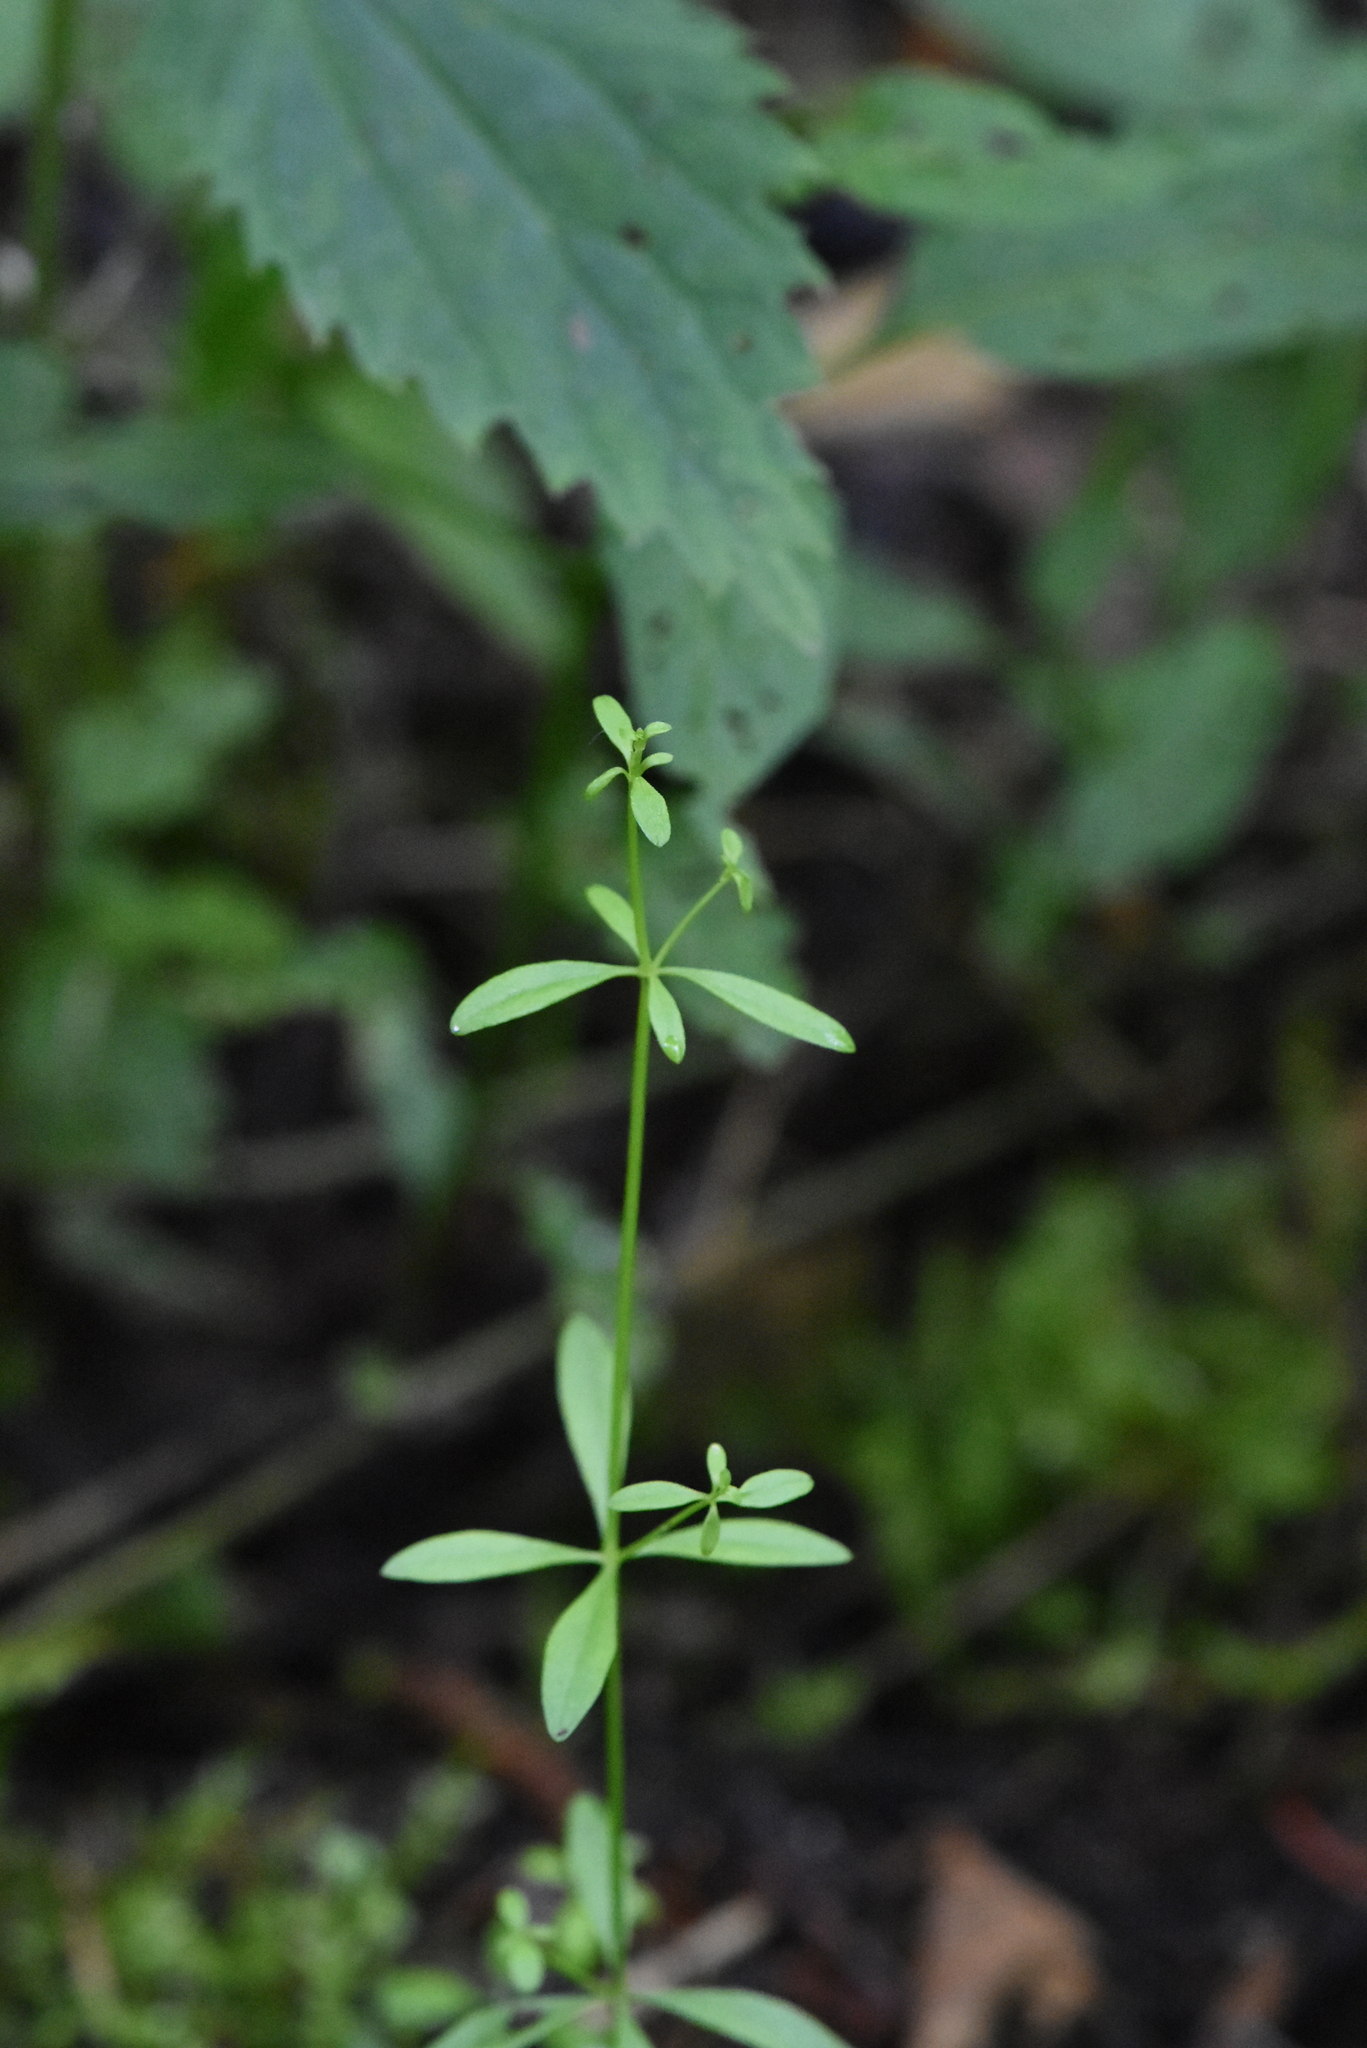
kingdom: Plantae
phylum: Tracheophyta
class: Magnoliopsida
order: Gentianales
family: Rubiaceae
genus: Galium
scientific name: Galium palustre
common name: Common marsh-bedstraw
